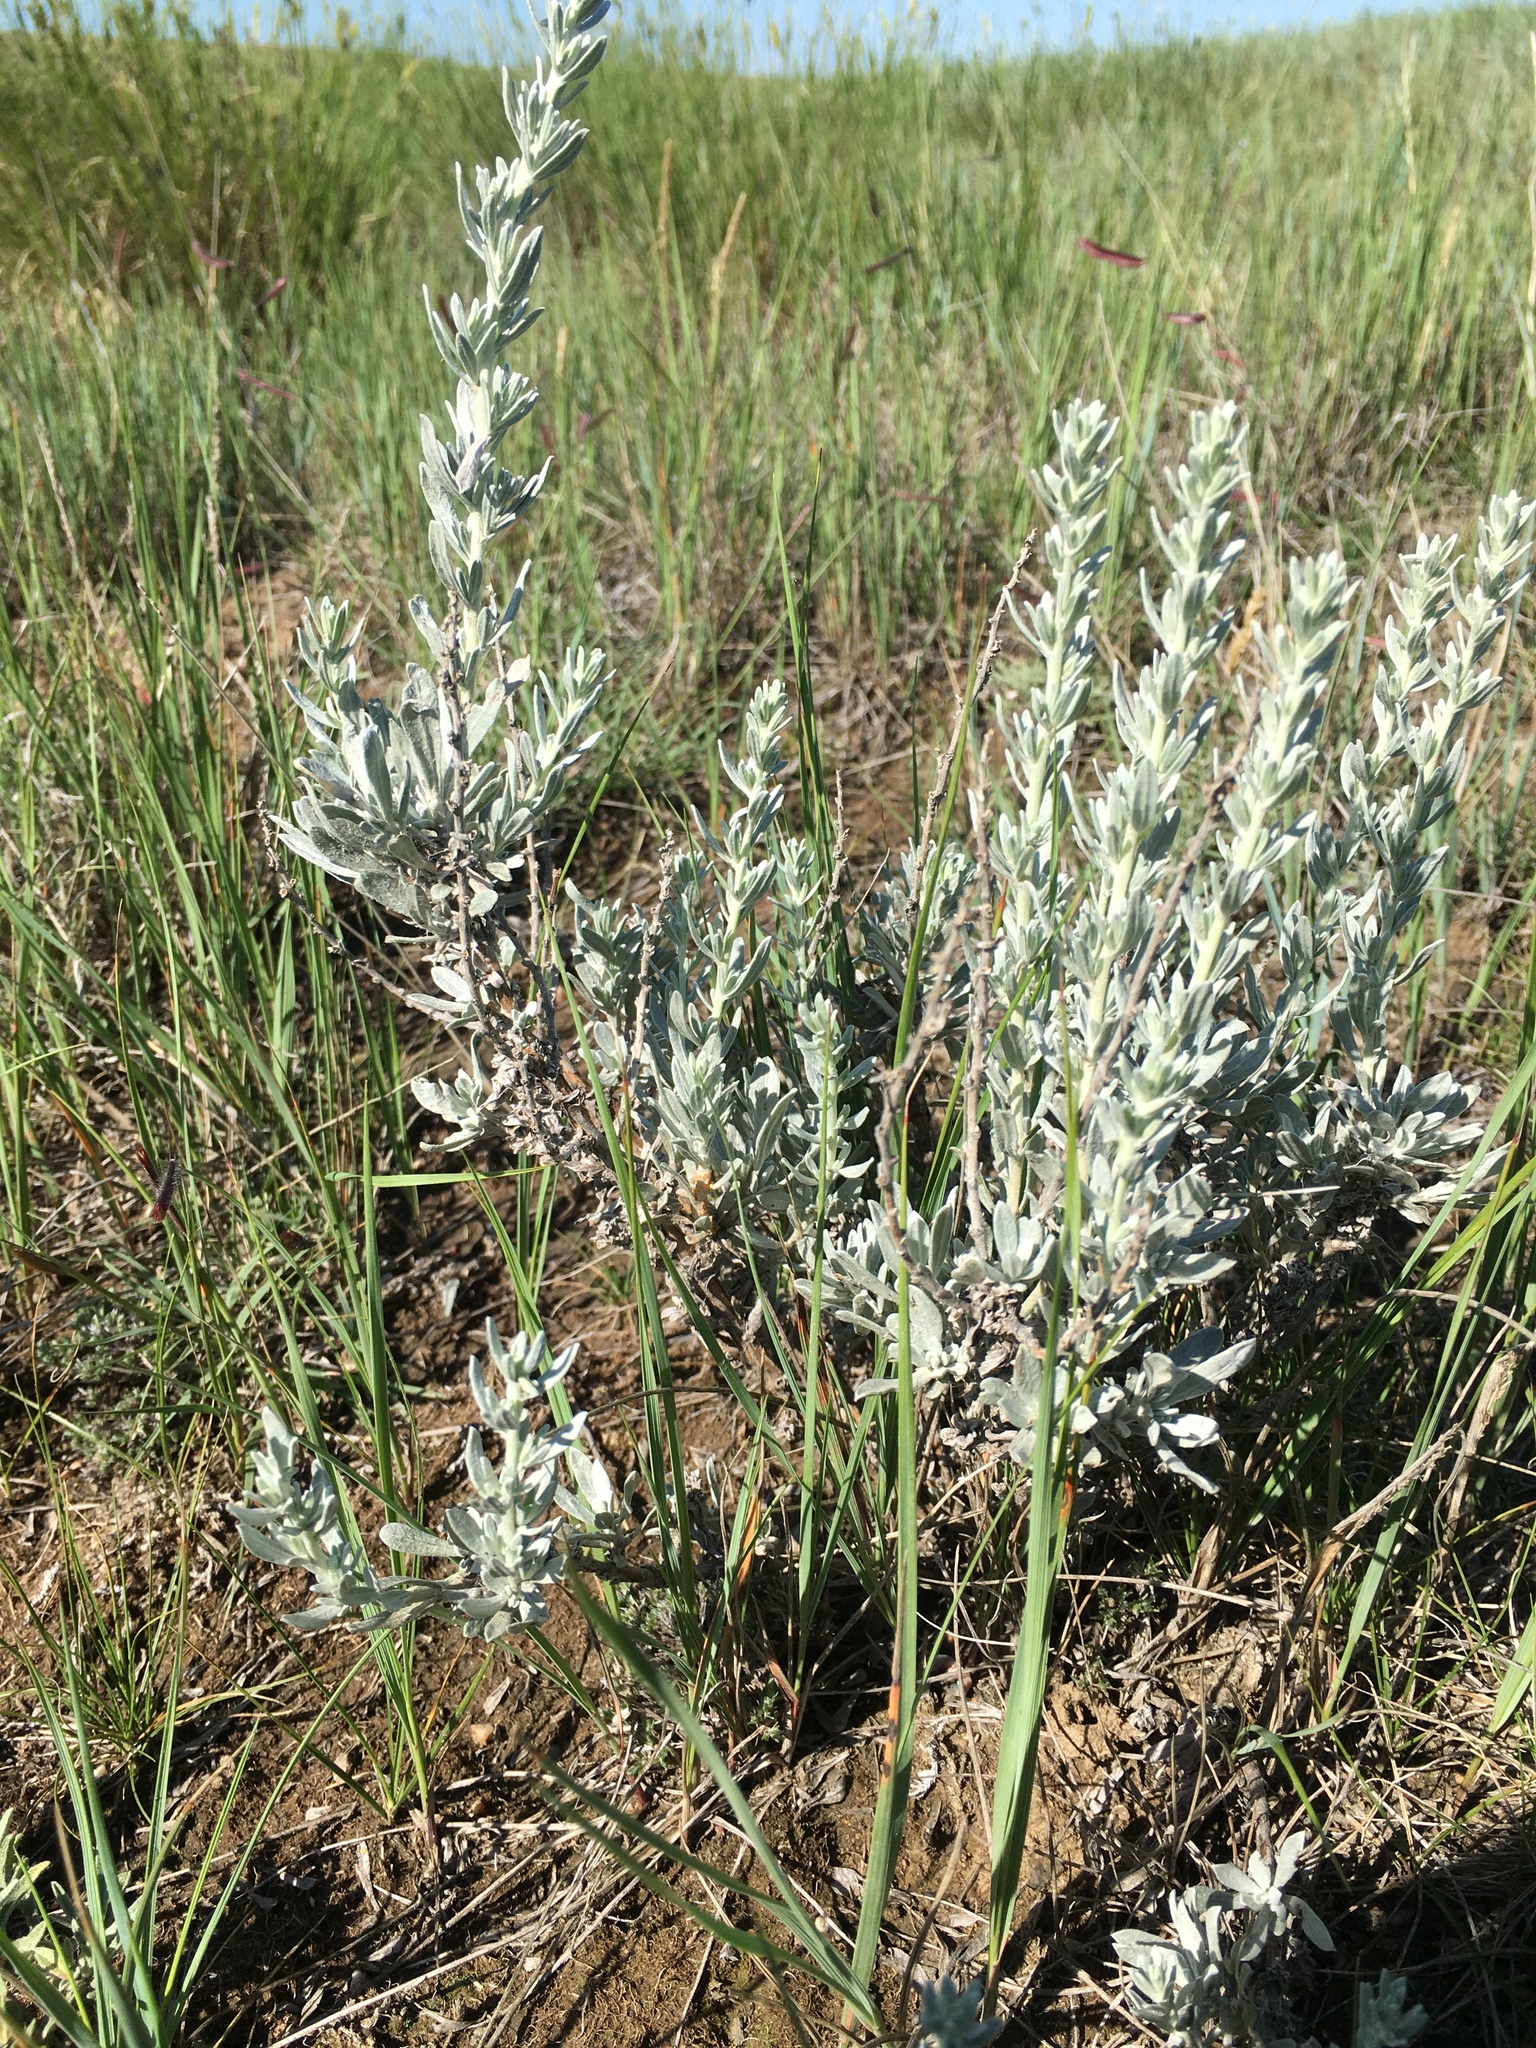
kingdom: Plantae
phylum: Tracheophyta
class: Magnoliopsida
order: Asterales
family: Asteraceae
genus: Artemisia
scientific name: Artemisia cana
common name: Silver sagebrush
